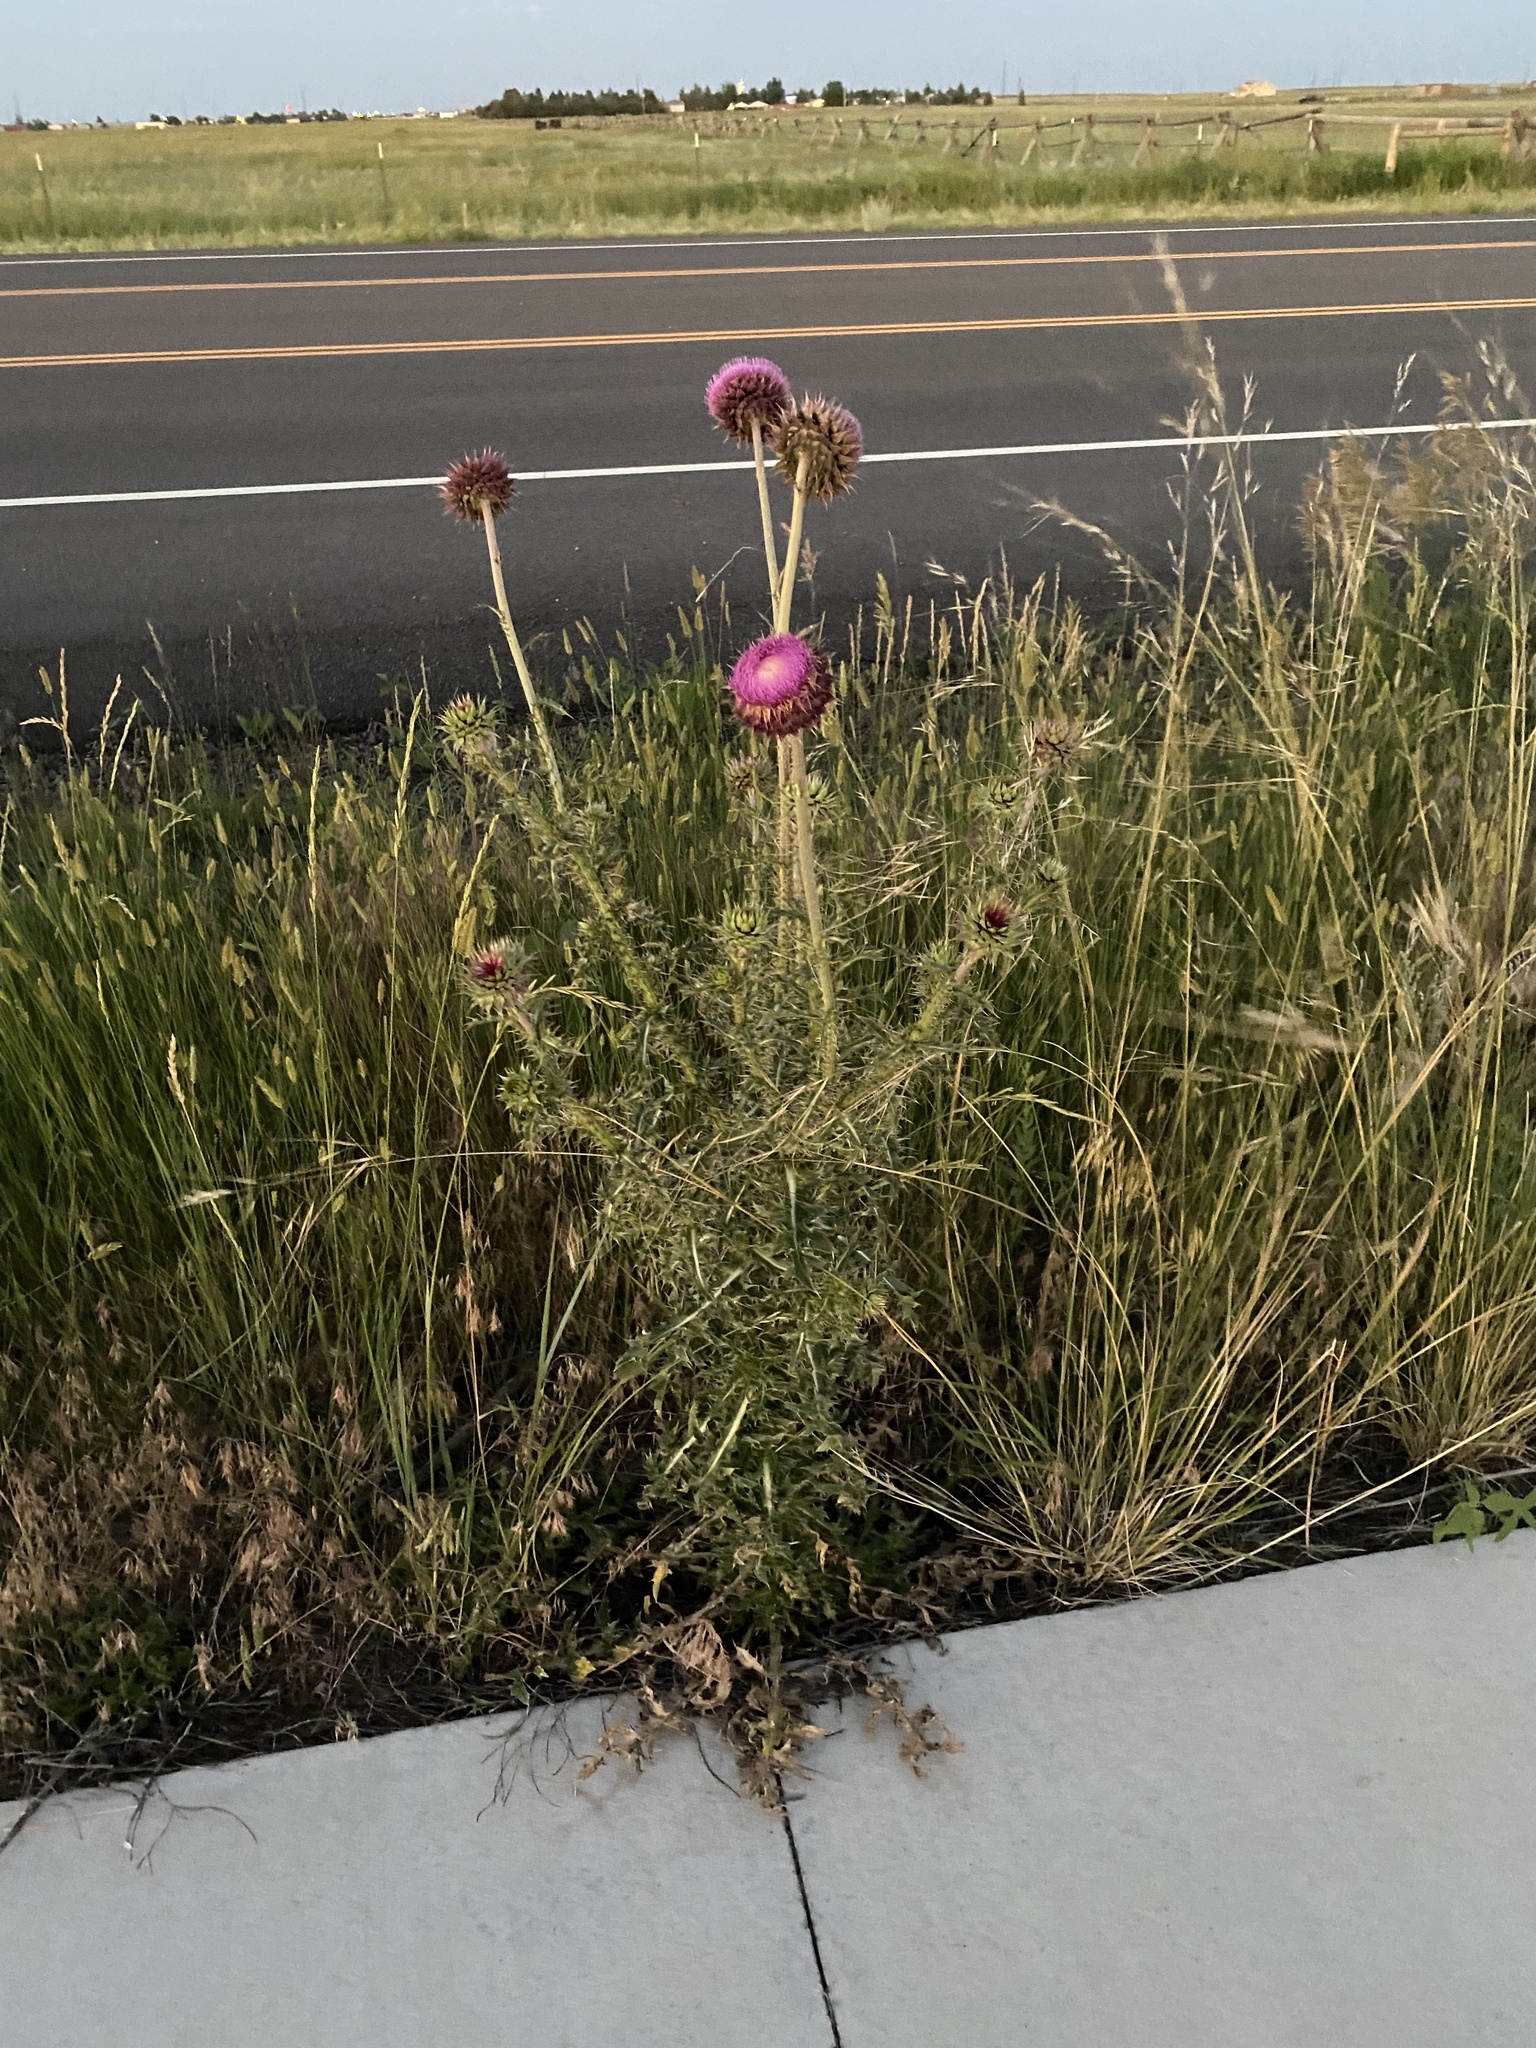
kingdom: Plantae
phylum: Tracheophyta
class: Magnoliopsida
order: Asterales
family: Asteraceae
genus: Carduus
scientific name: Carduus nutans
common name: Musk thistle
